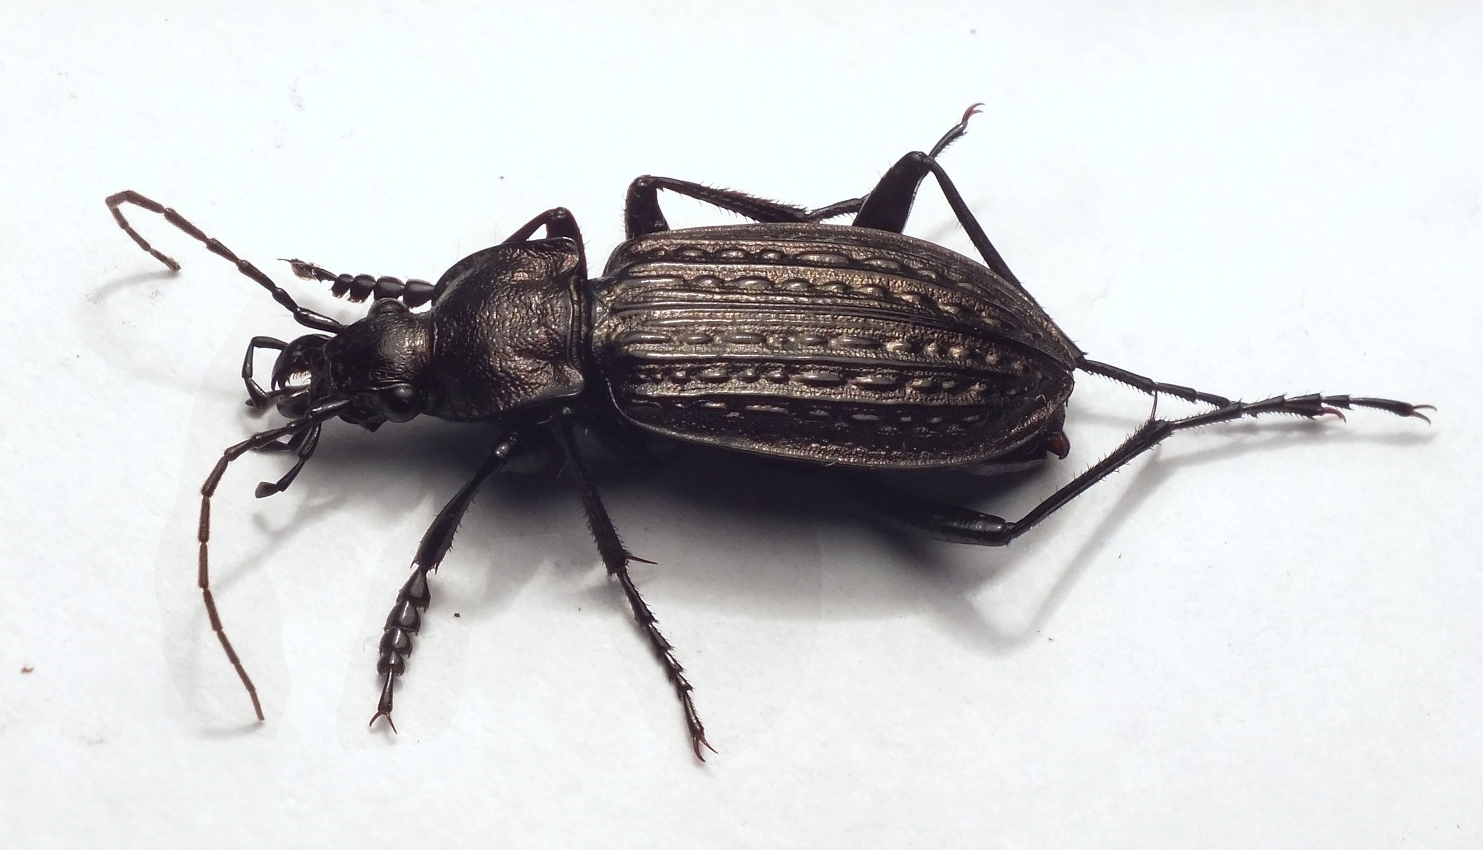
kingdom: Animalia
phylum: Arthropoda
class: Insecta
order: Coleoptera
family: Carabidae
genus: Carabus
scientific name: Carabus granulatus
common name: Granulate ground beetle
